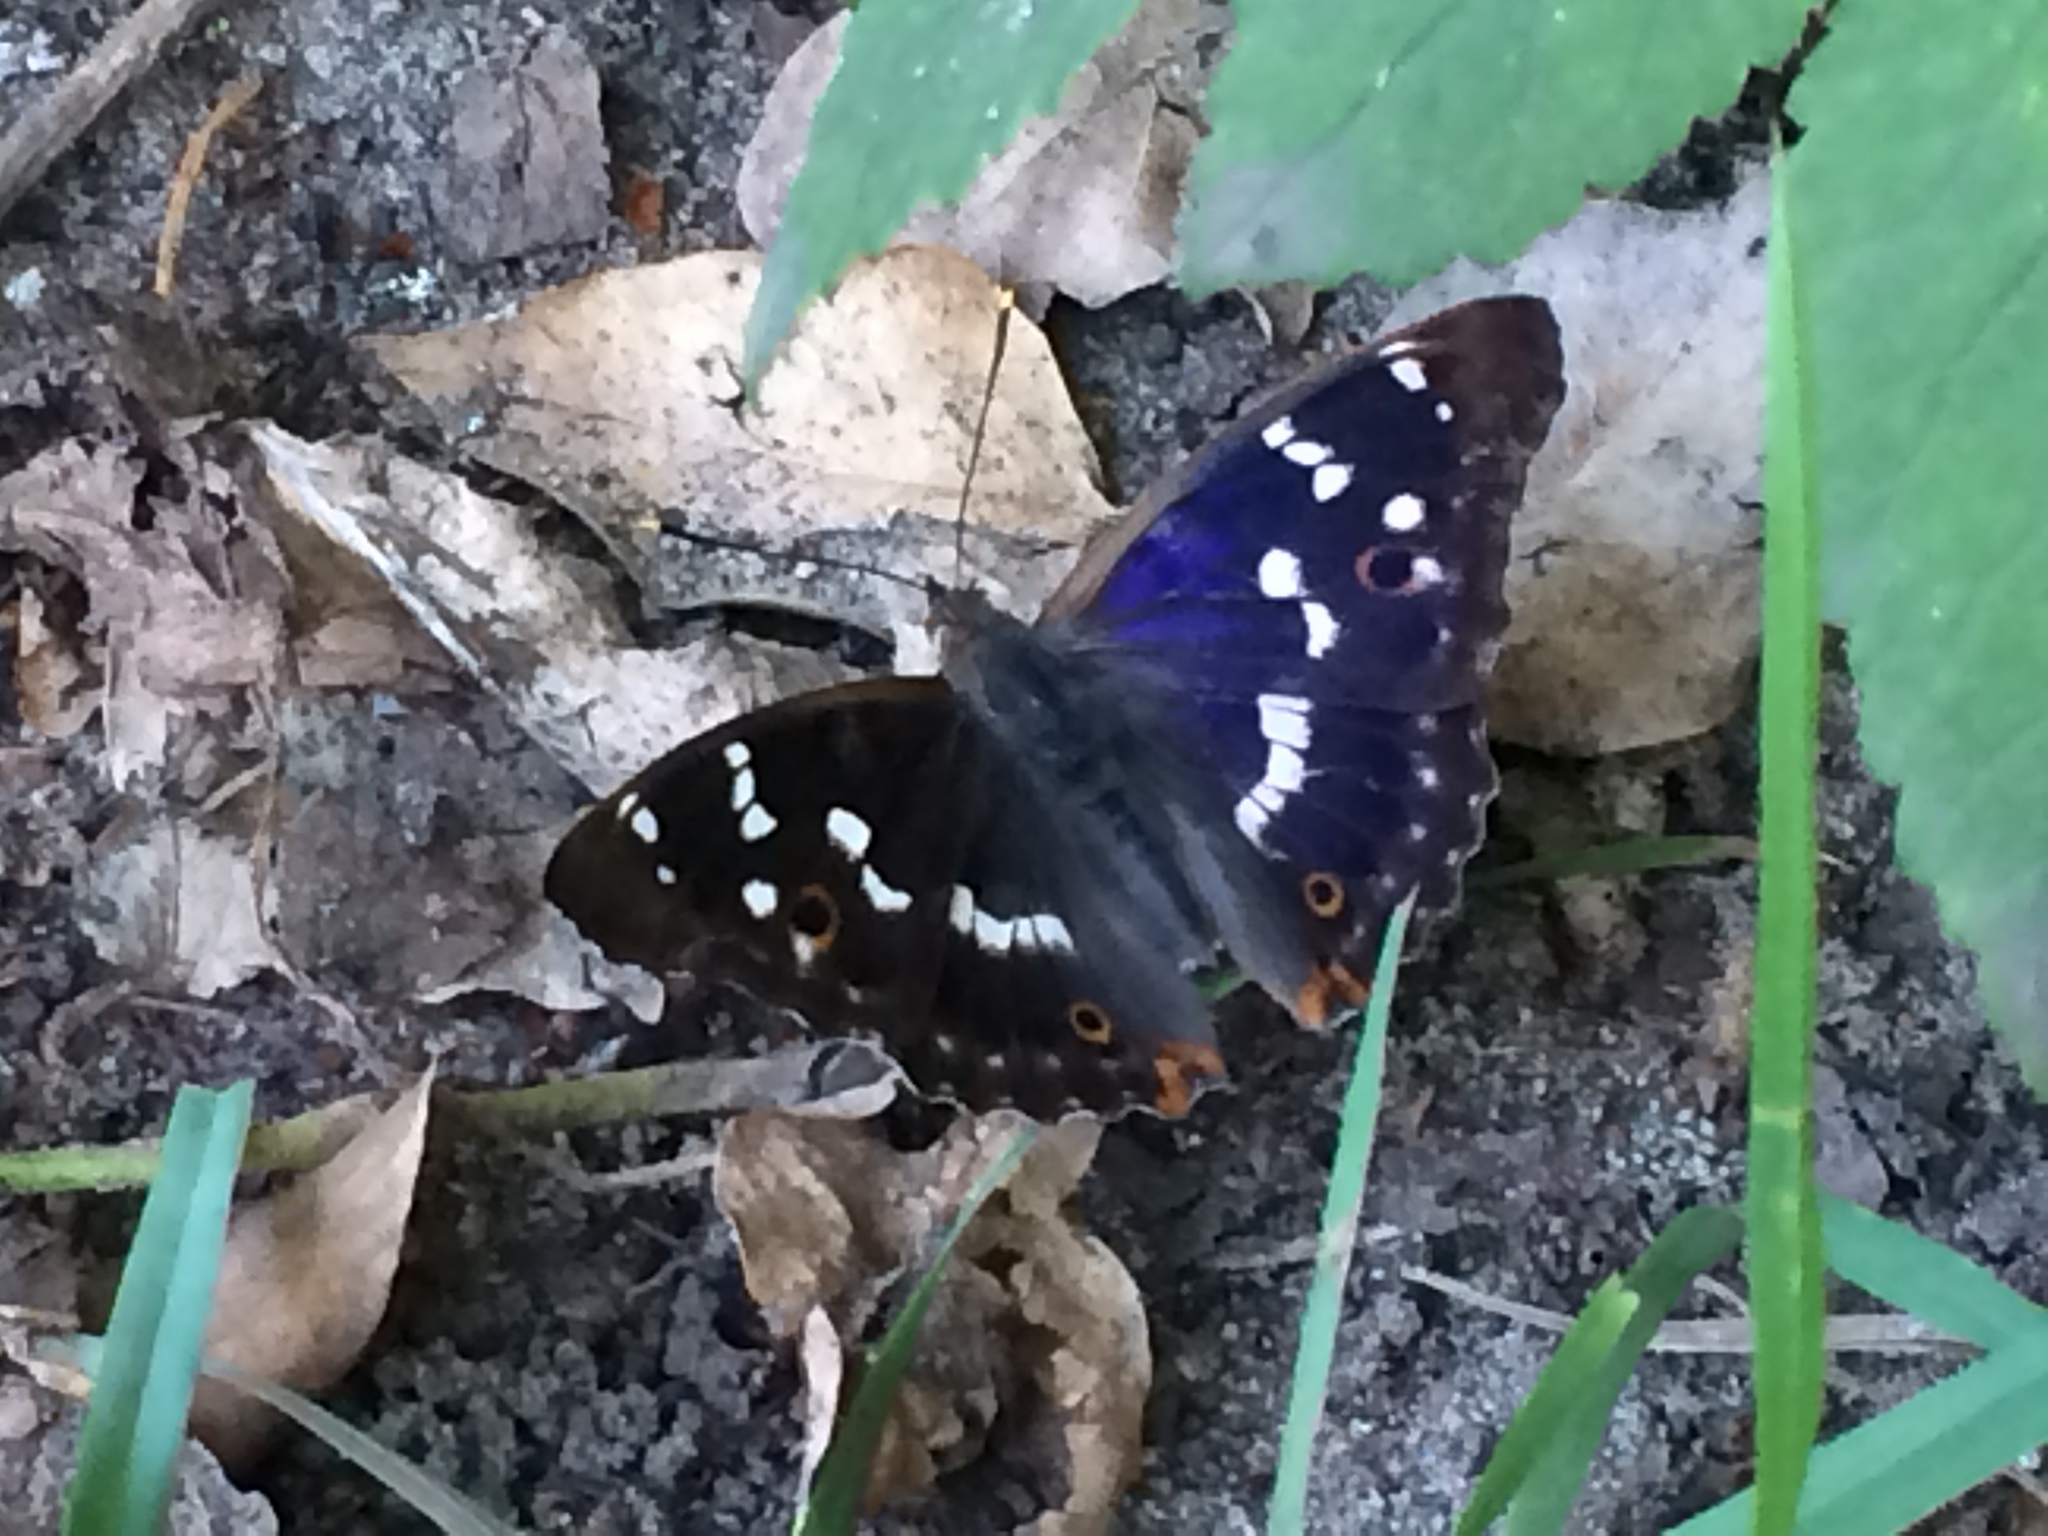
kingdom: Animalia
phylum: Arthropoda
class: Insecta
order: Lepidoptera
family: Nymphalidae
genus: Apatura
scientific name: Apatura ilia
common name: Lesser purple emperor
